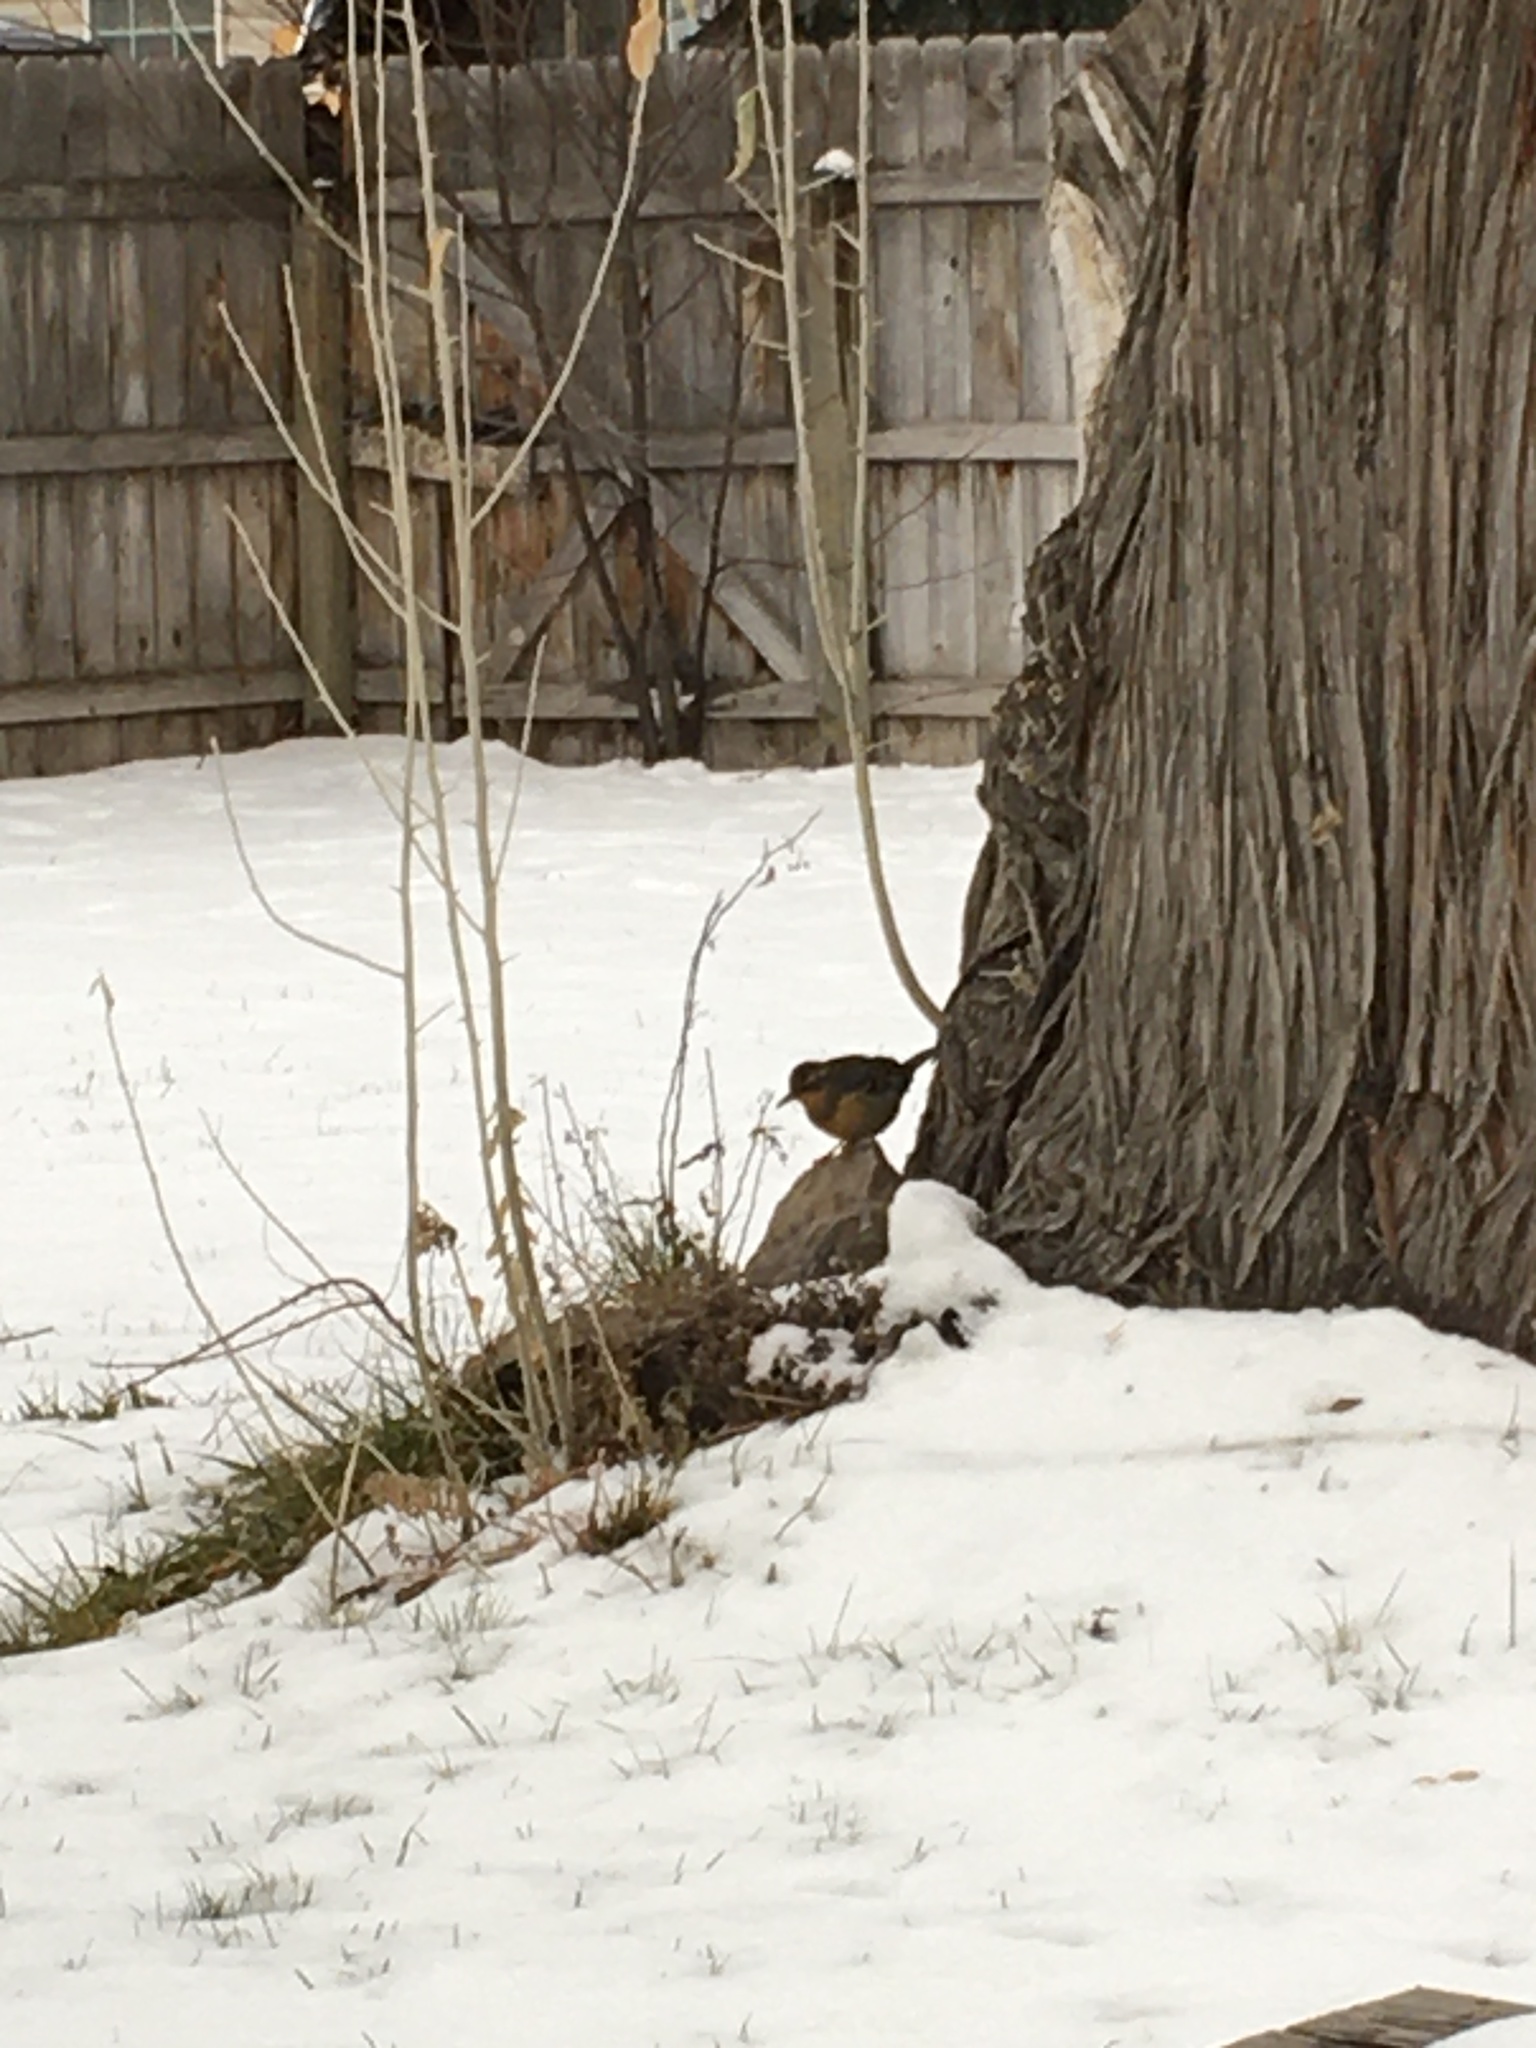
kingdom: Animalia
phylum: Chordata
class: Aves
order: Passeriformes
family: Turdidae
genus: Ixoreus
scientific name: Ixoreus naevius
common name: Varied thrush
